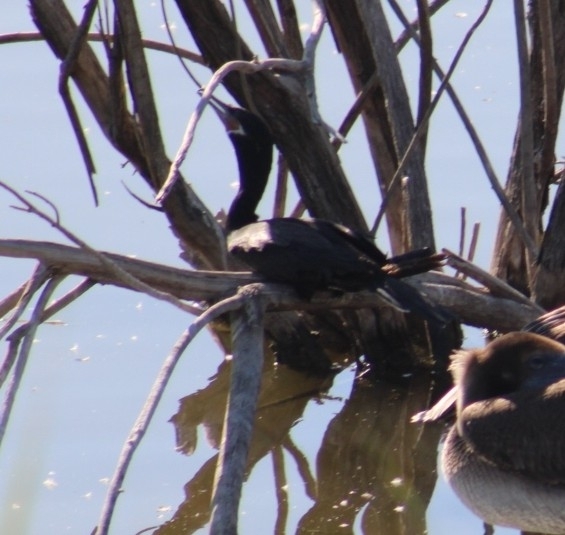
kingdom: Animalia
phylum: Chordata
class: Aves
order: Suliformes
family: Phalacrocoracidae
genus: Phalacrocorax
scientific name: Phalacrocorax brasilianus
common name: Neotropic cormorant
